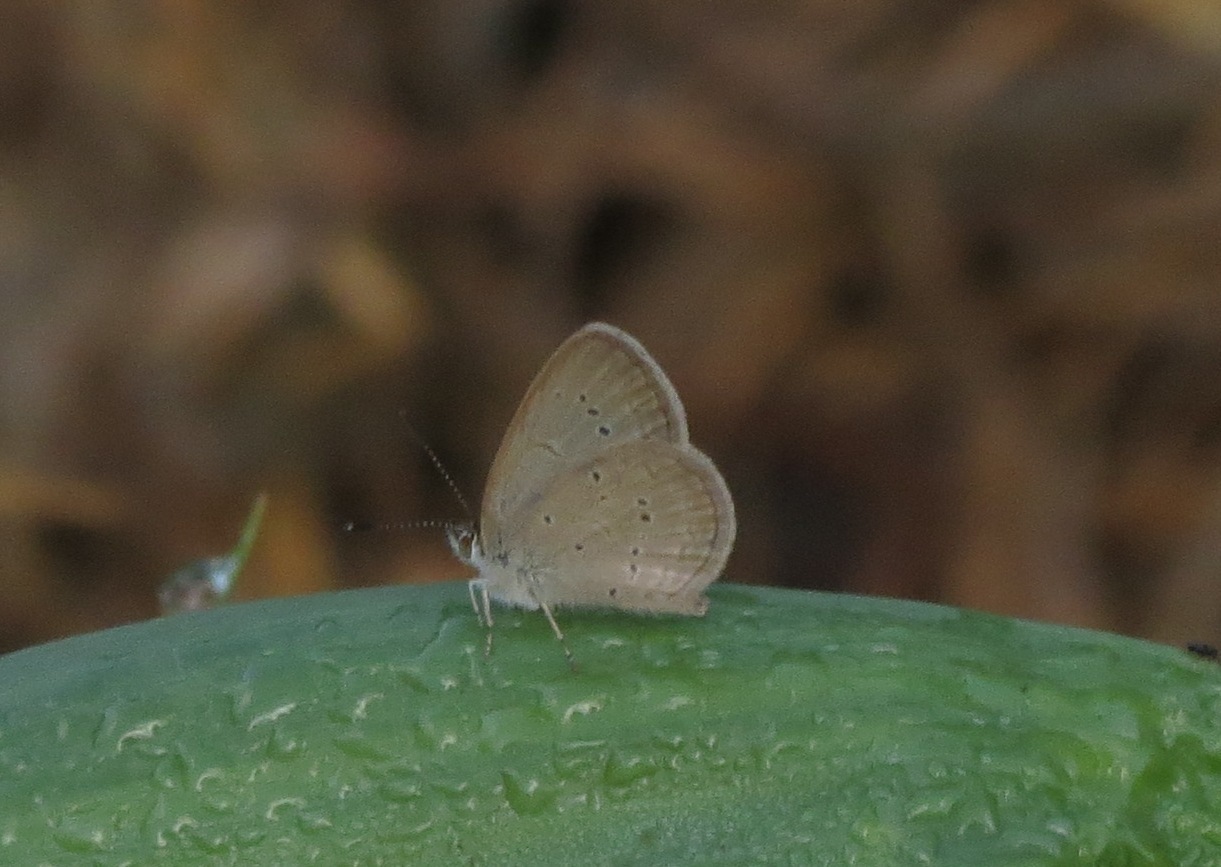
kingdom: Animalia
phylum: Arthropoda
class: Insecta
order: Lepidoptera
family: Lycaenidae
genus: Zizina
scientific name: Zizina otis
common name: Lesser grass blue
